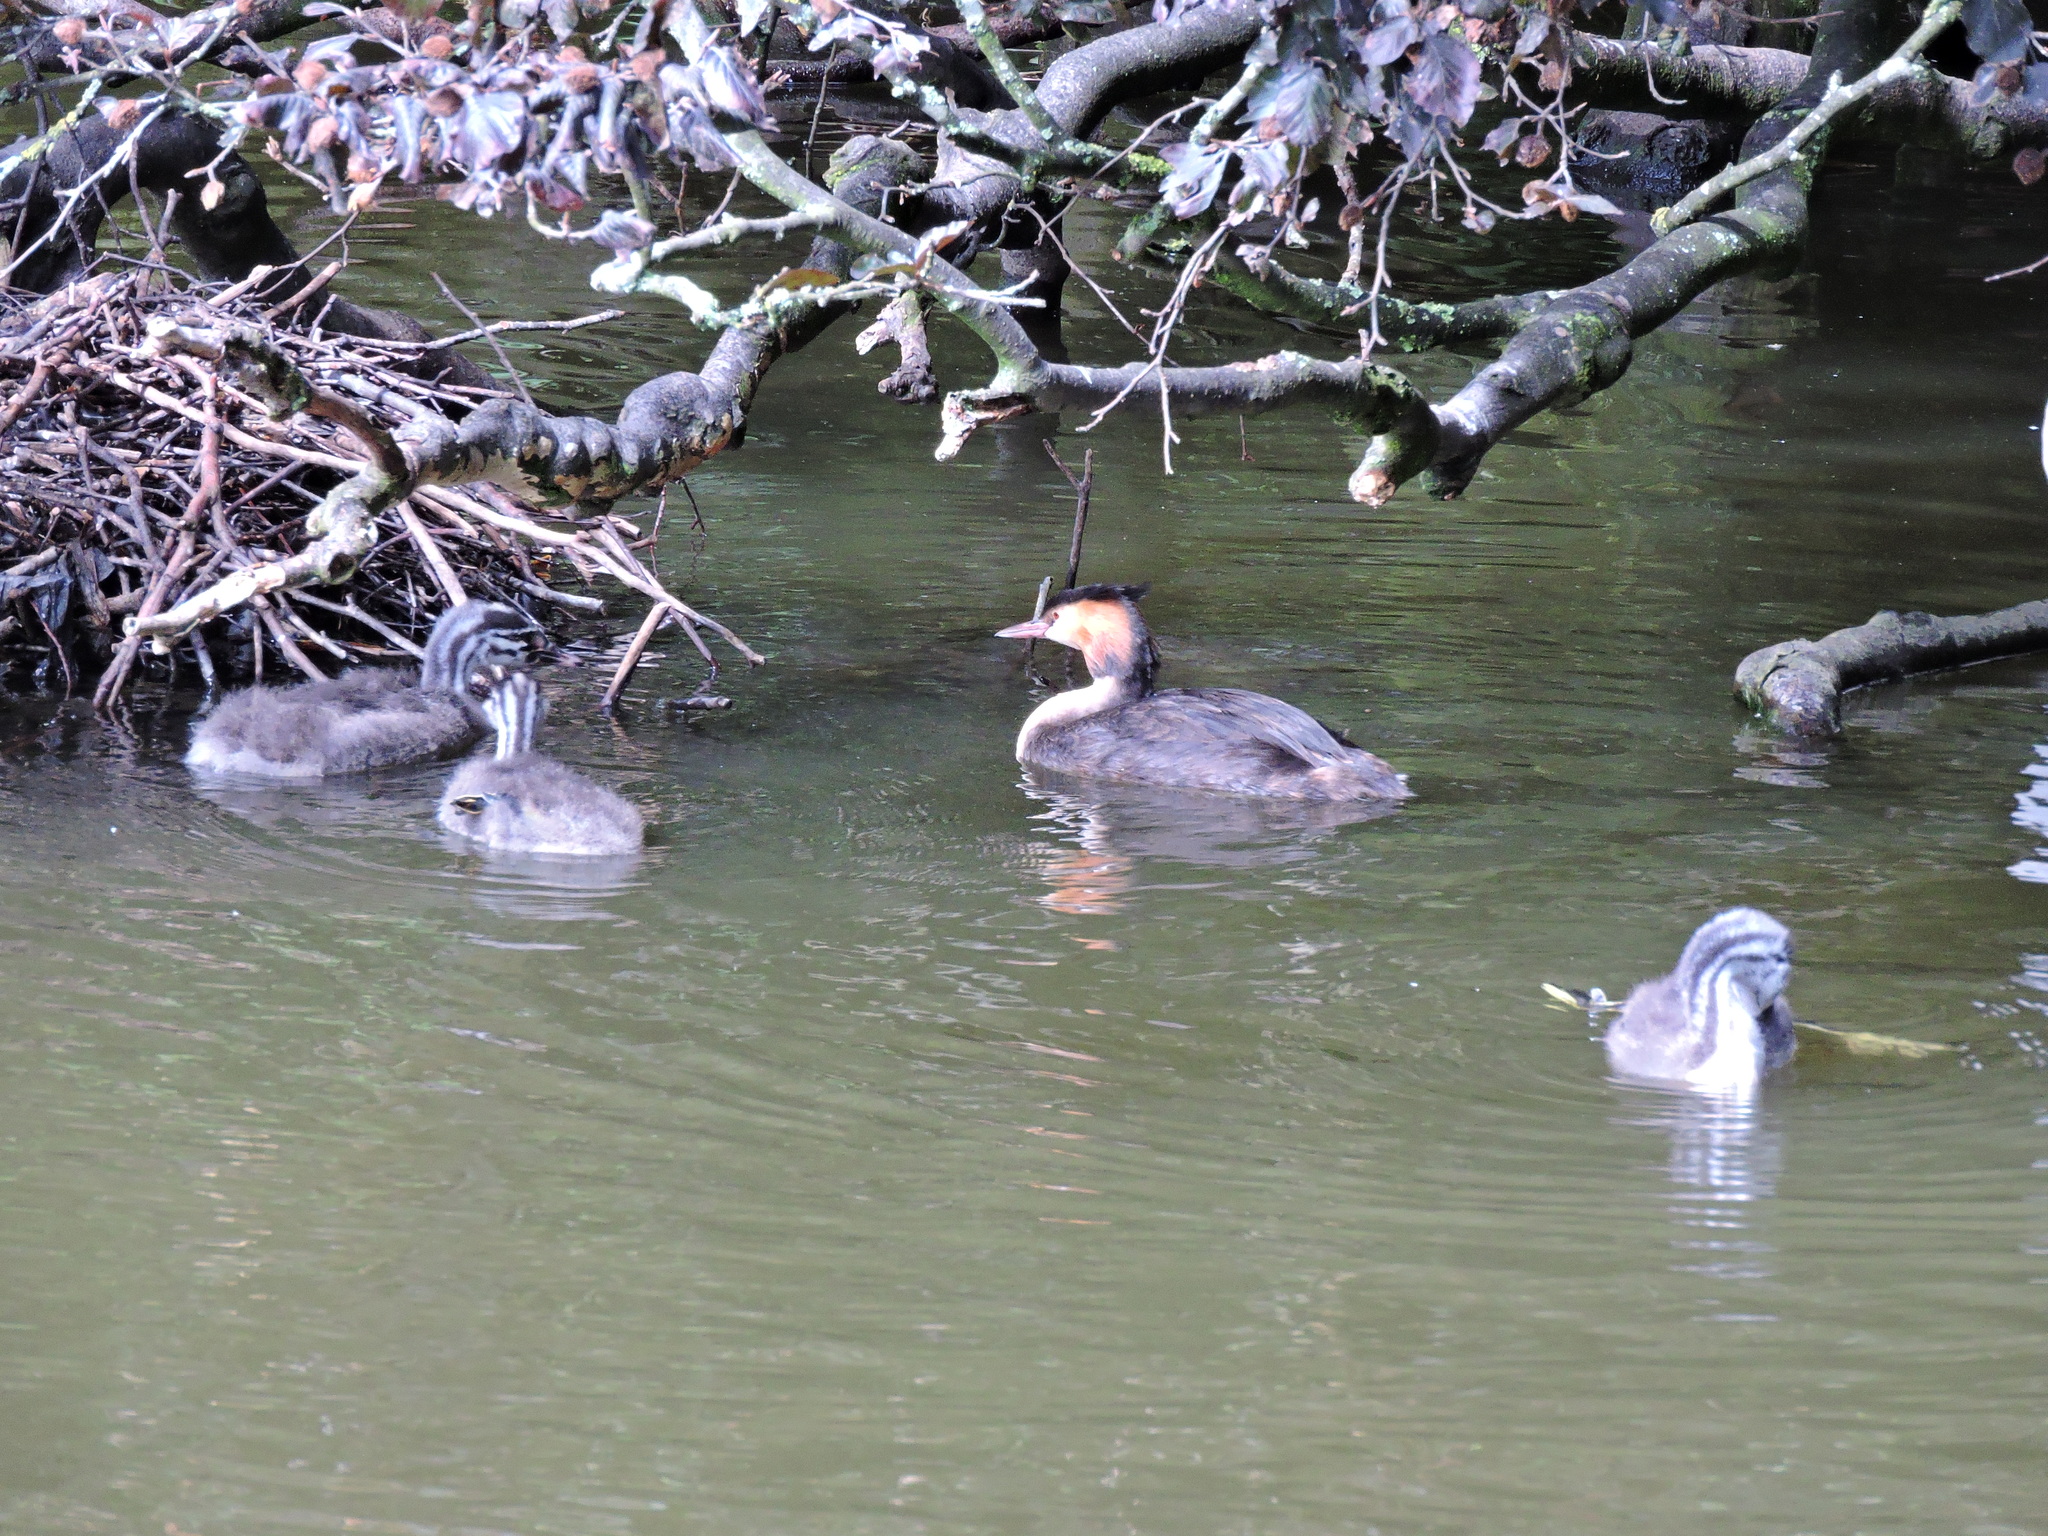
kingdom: Animalia
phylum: Chordata
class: Aves
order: Podicipediformes
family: Podicipedidae
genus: Podiceps
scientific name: Podiceps cristatus
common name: Great crested grebe
